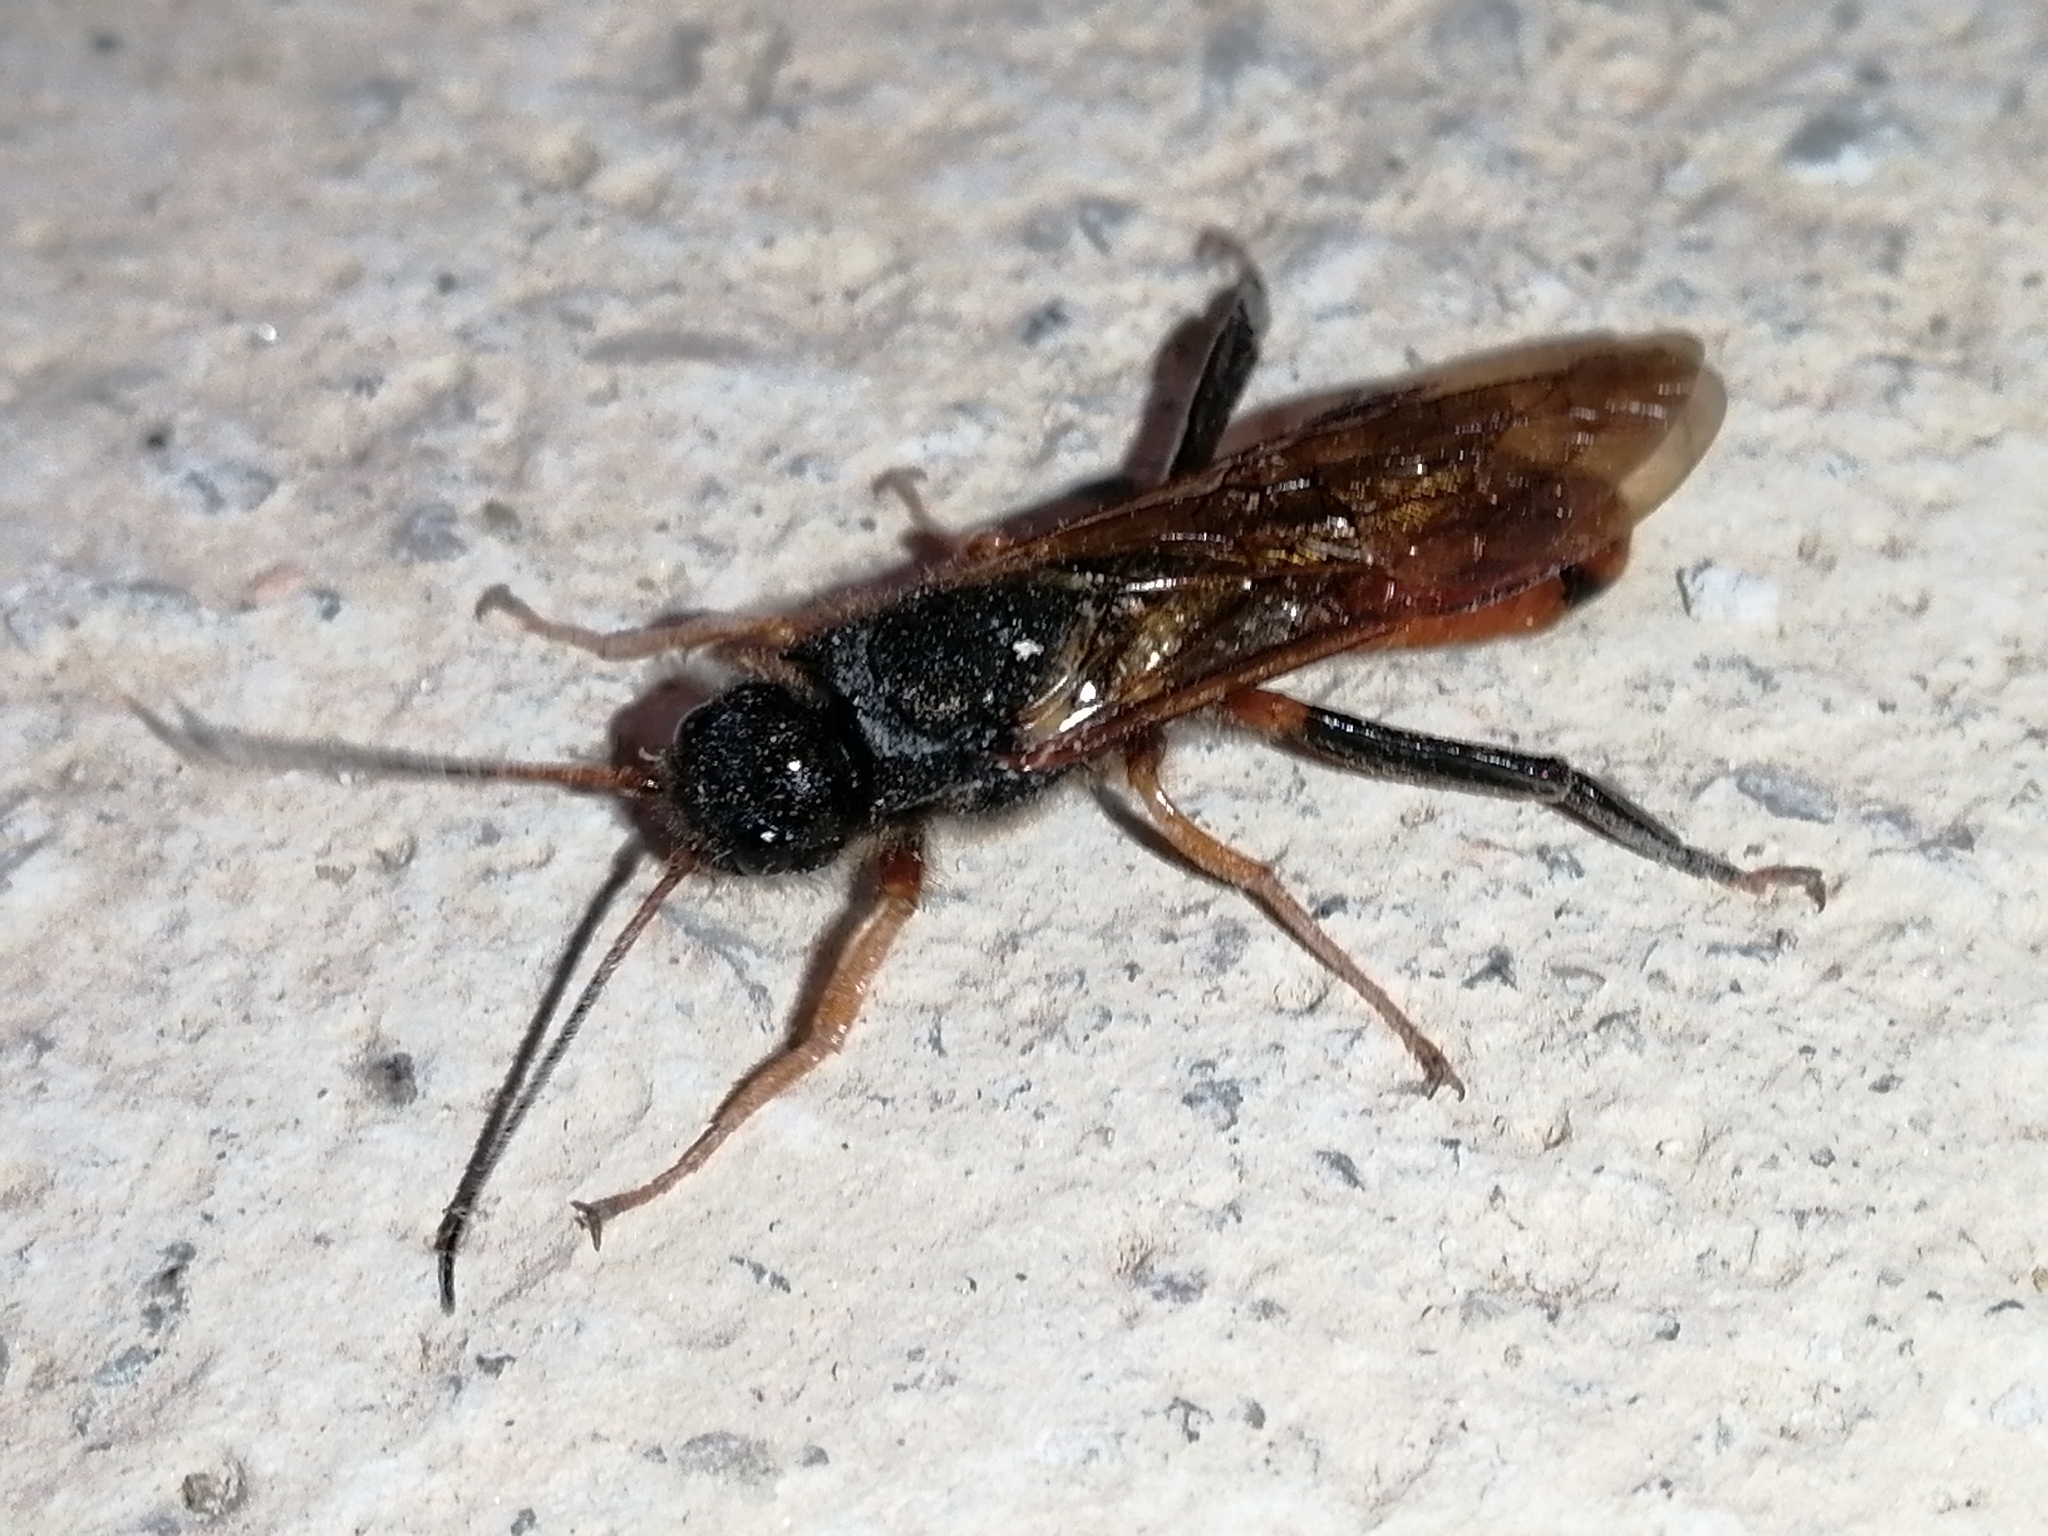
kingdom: Animalia
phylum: Arthropoda
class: Insecta
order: Hymenoptera
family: Siricidae
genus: Sirex
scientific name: Sirex juvencus
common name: Blue horntail
